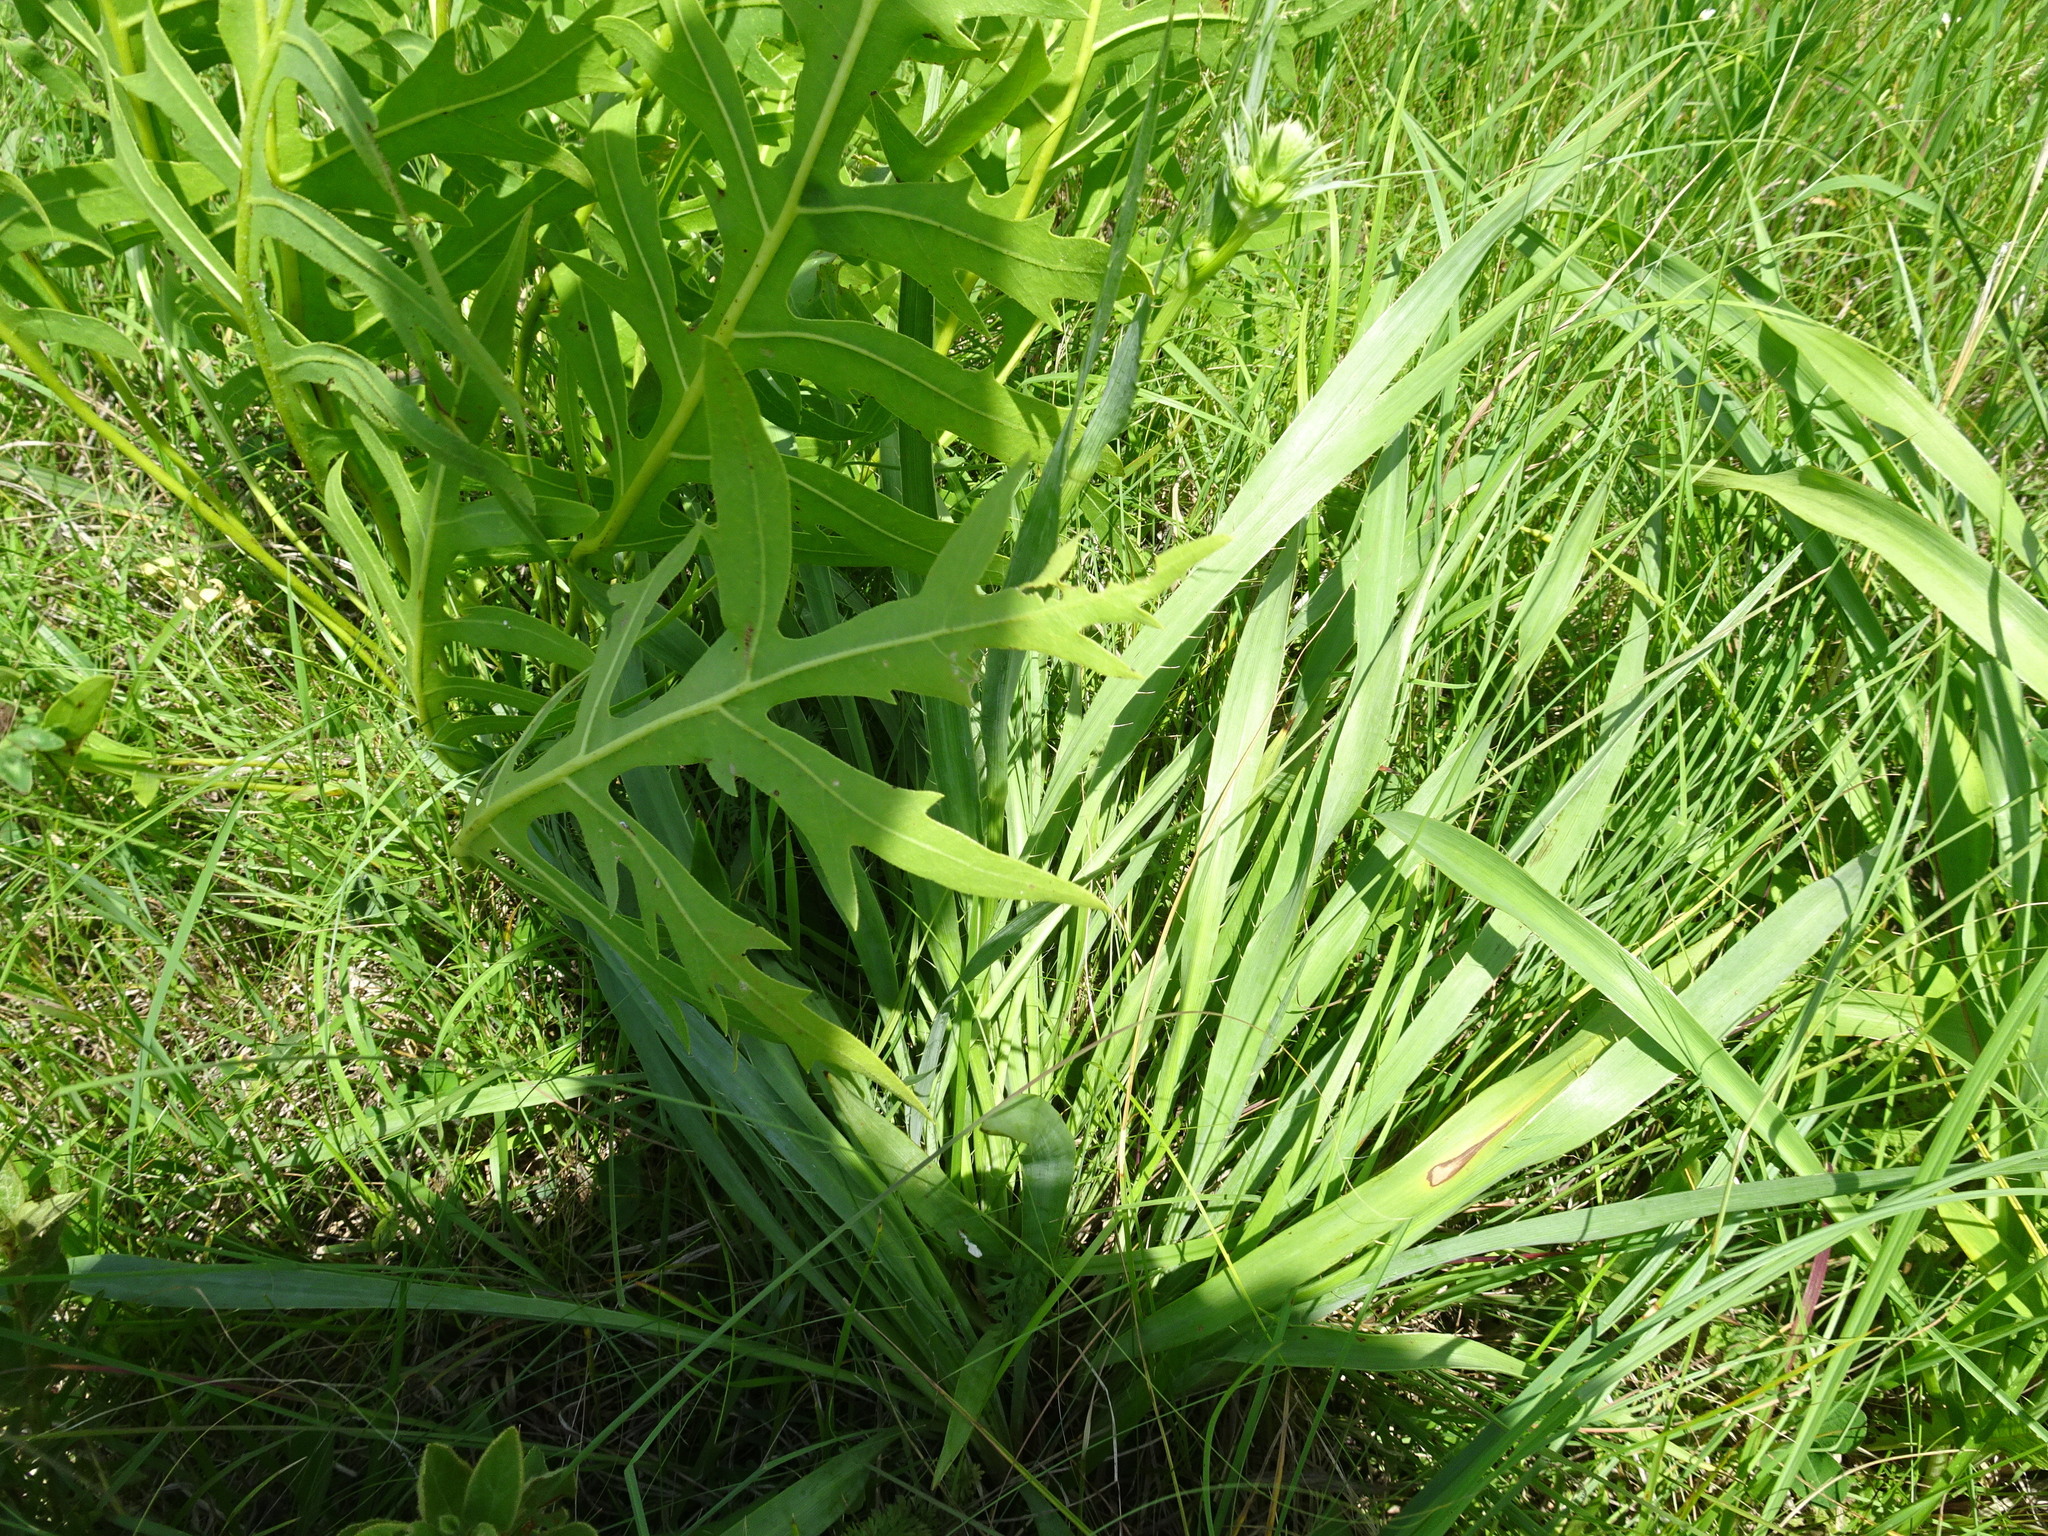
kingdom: Plantae
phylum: Tracheophyta
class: Magnoliopsida
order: Apiales
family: Apiaceae
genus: Eryngium
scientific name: Eryngium yuccifolium
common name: Button eryngo
